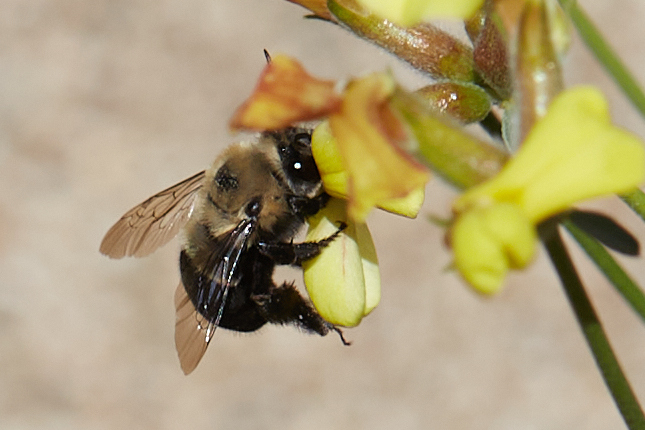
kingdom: Animalia
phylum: Arthropoda
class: Insecta
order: Hymenoptera
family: Apidae
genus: Habropoda
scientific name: Habropoda tristissima
